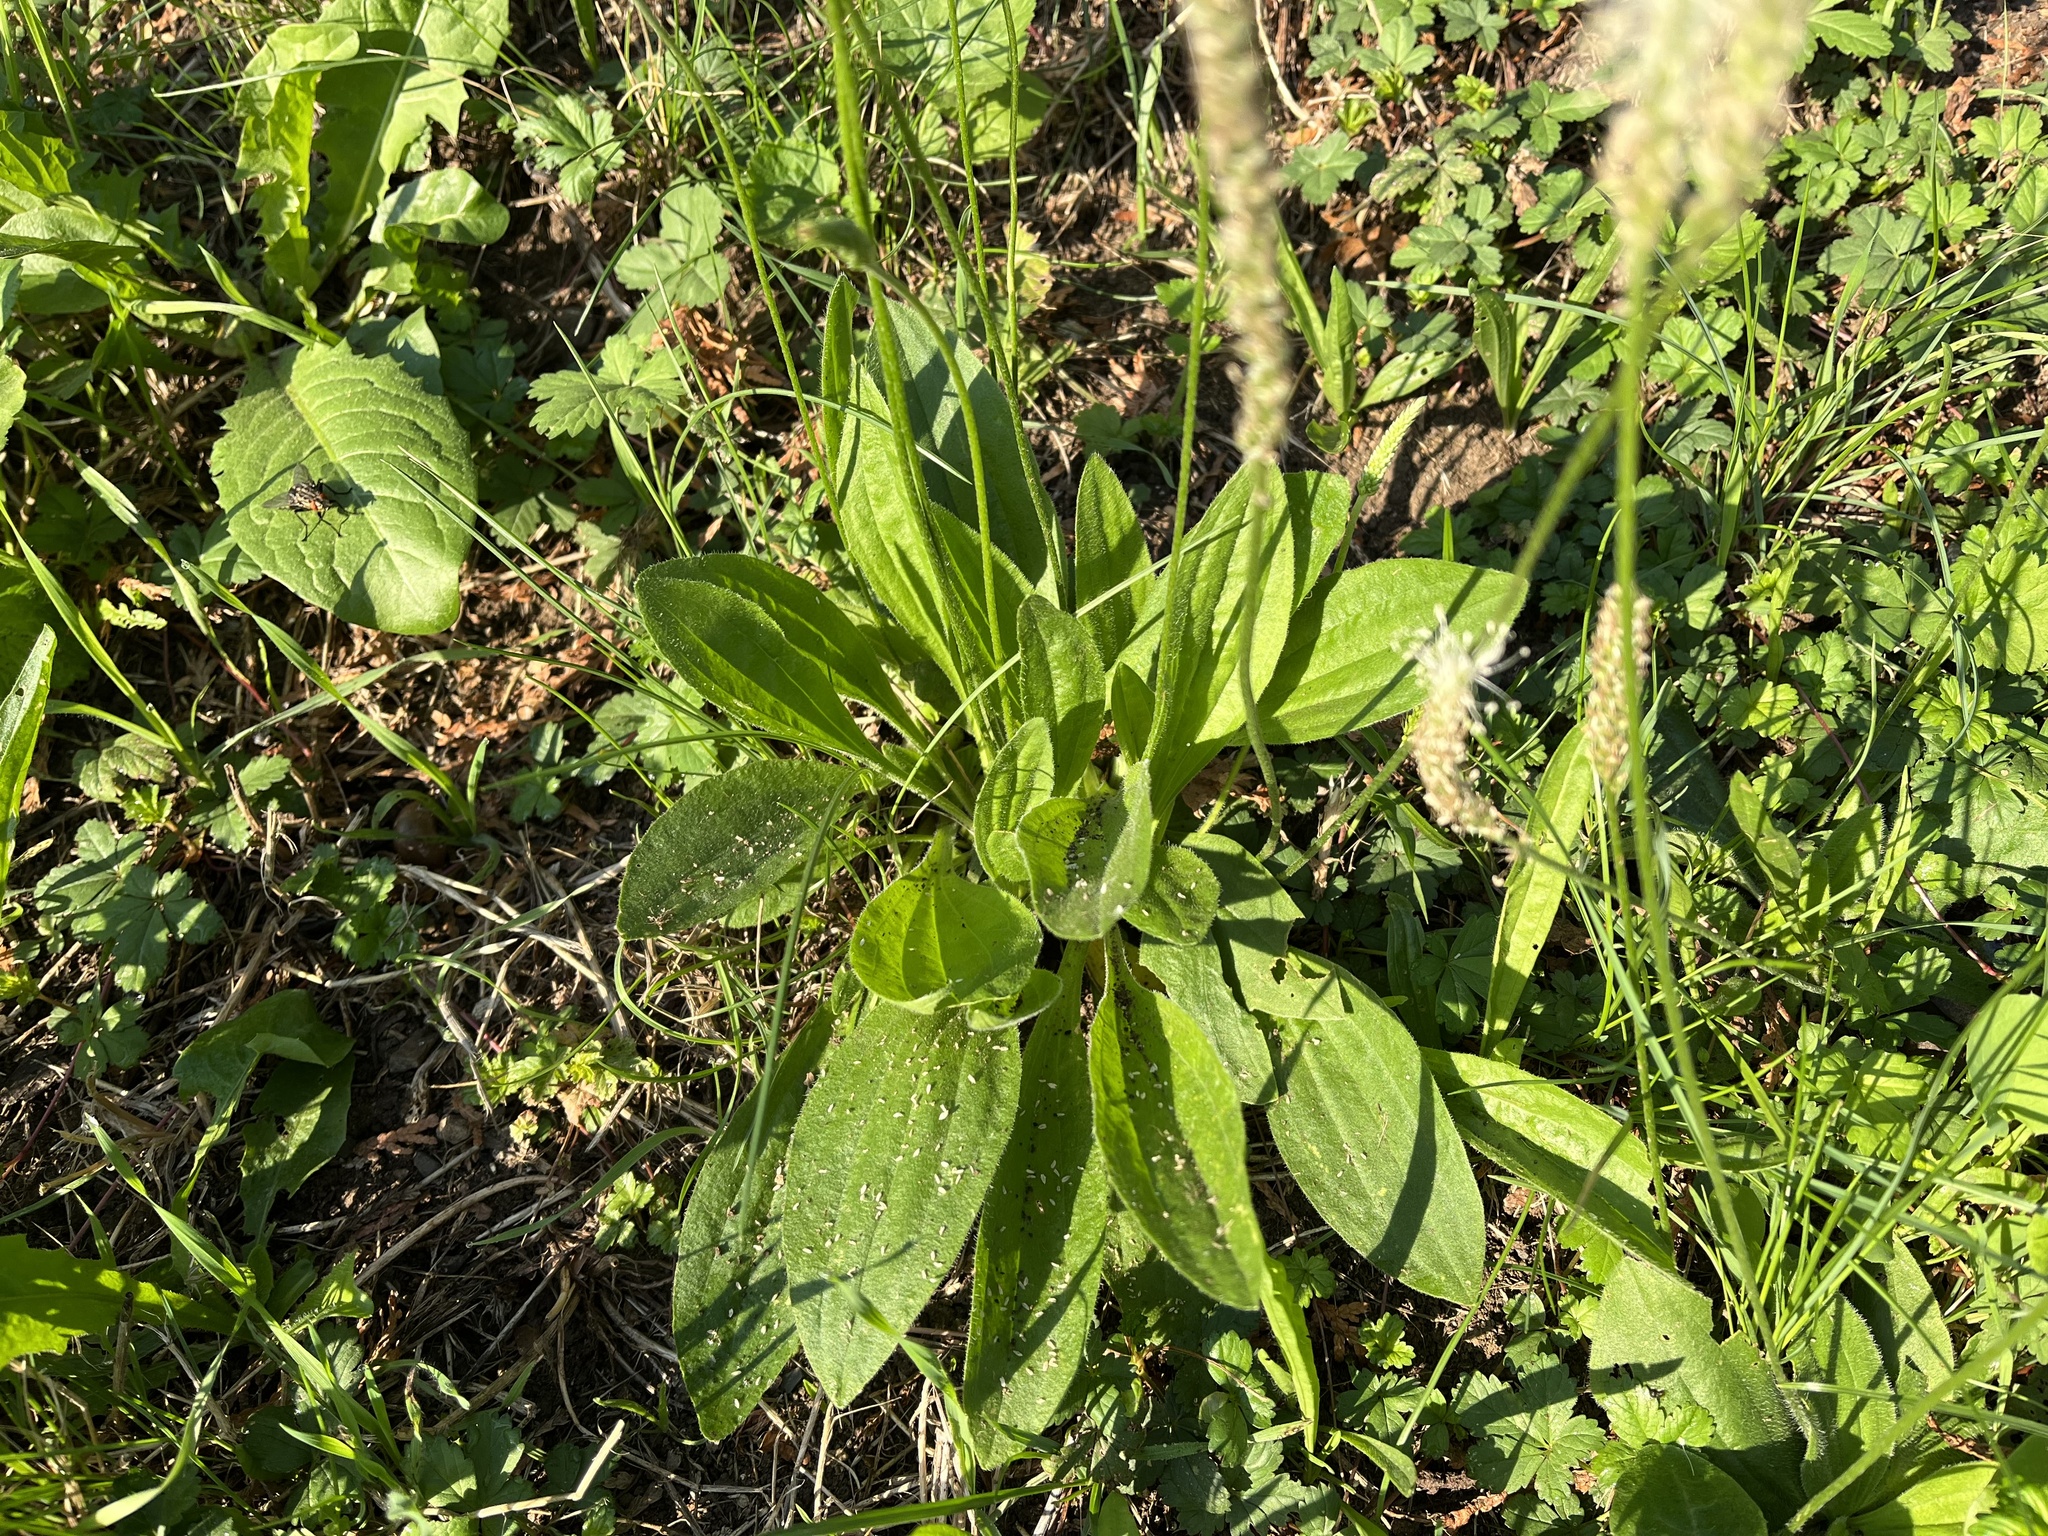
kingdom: Plantae
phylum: Tracheophyta
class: Magnoliopsida
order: Lamiales
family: Plantaginaceae
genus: Plantago
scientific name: Plantago media
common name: Hoary plantain
